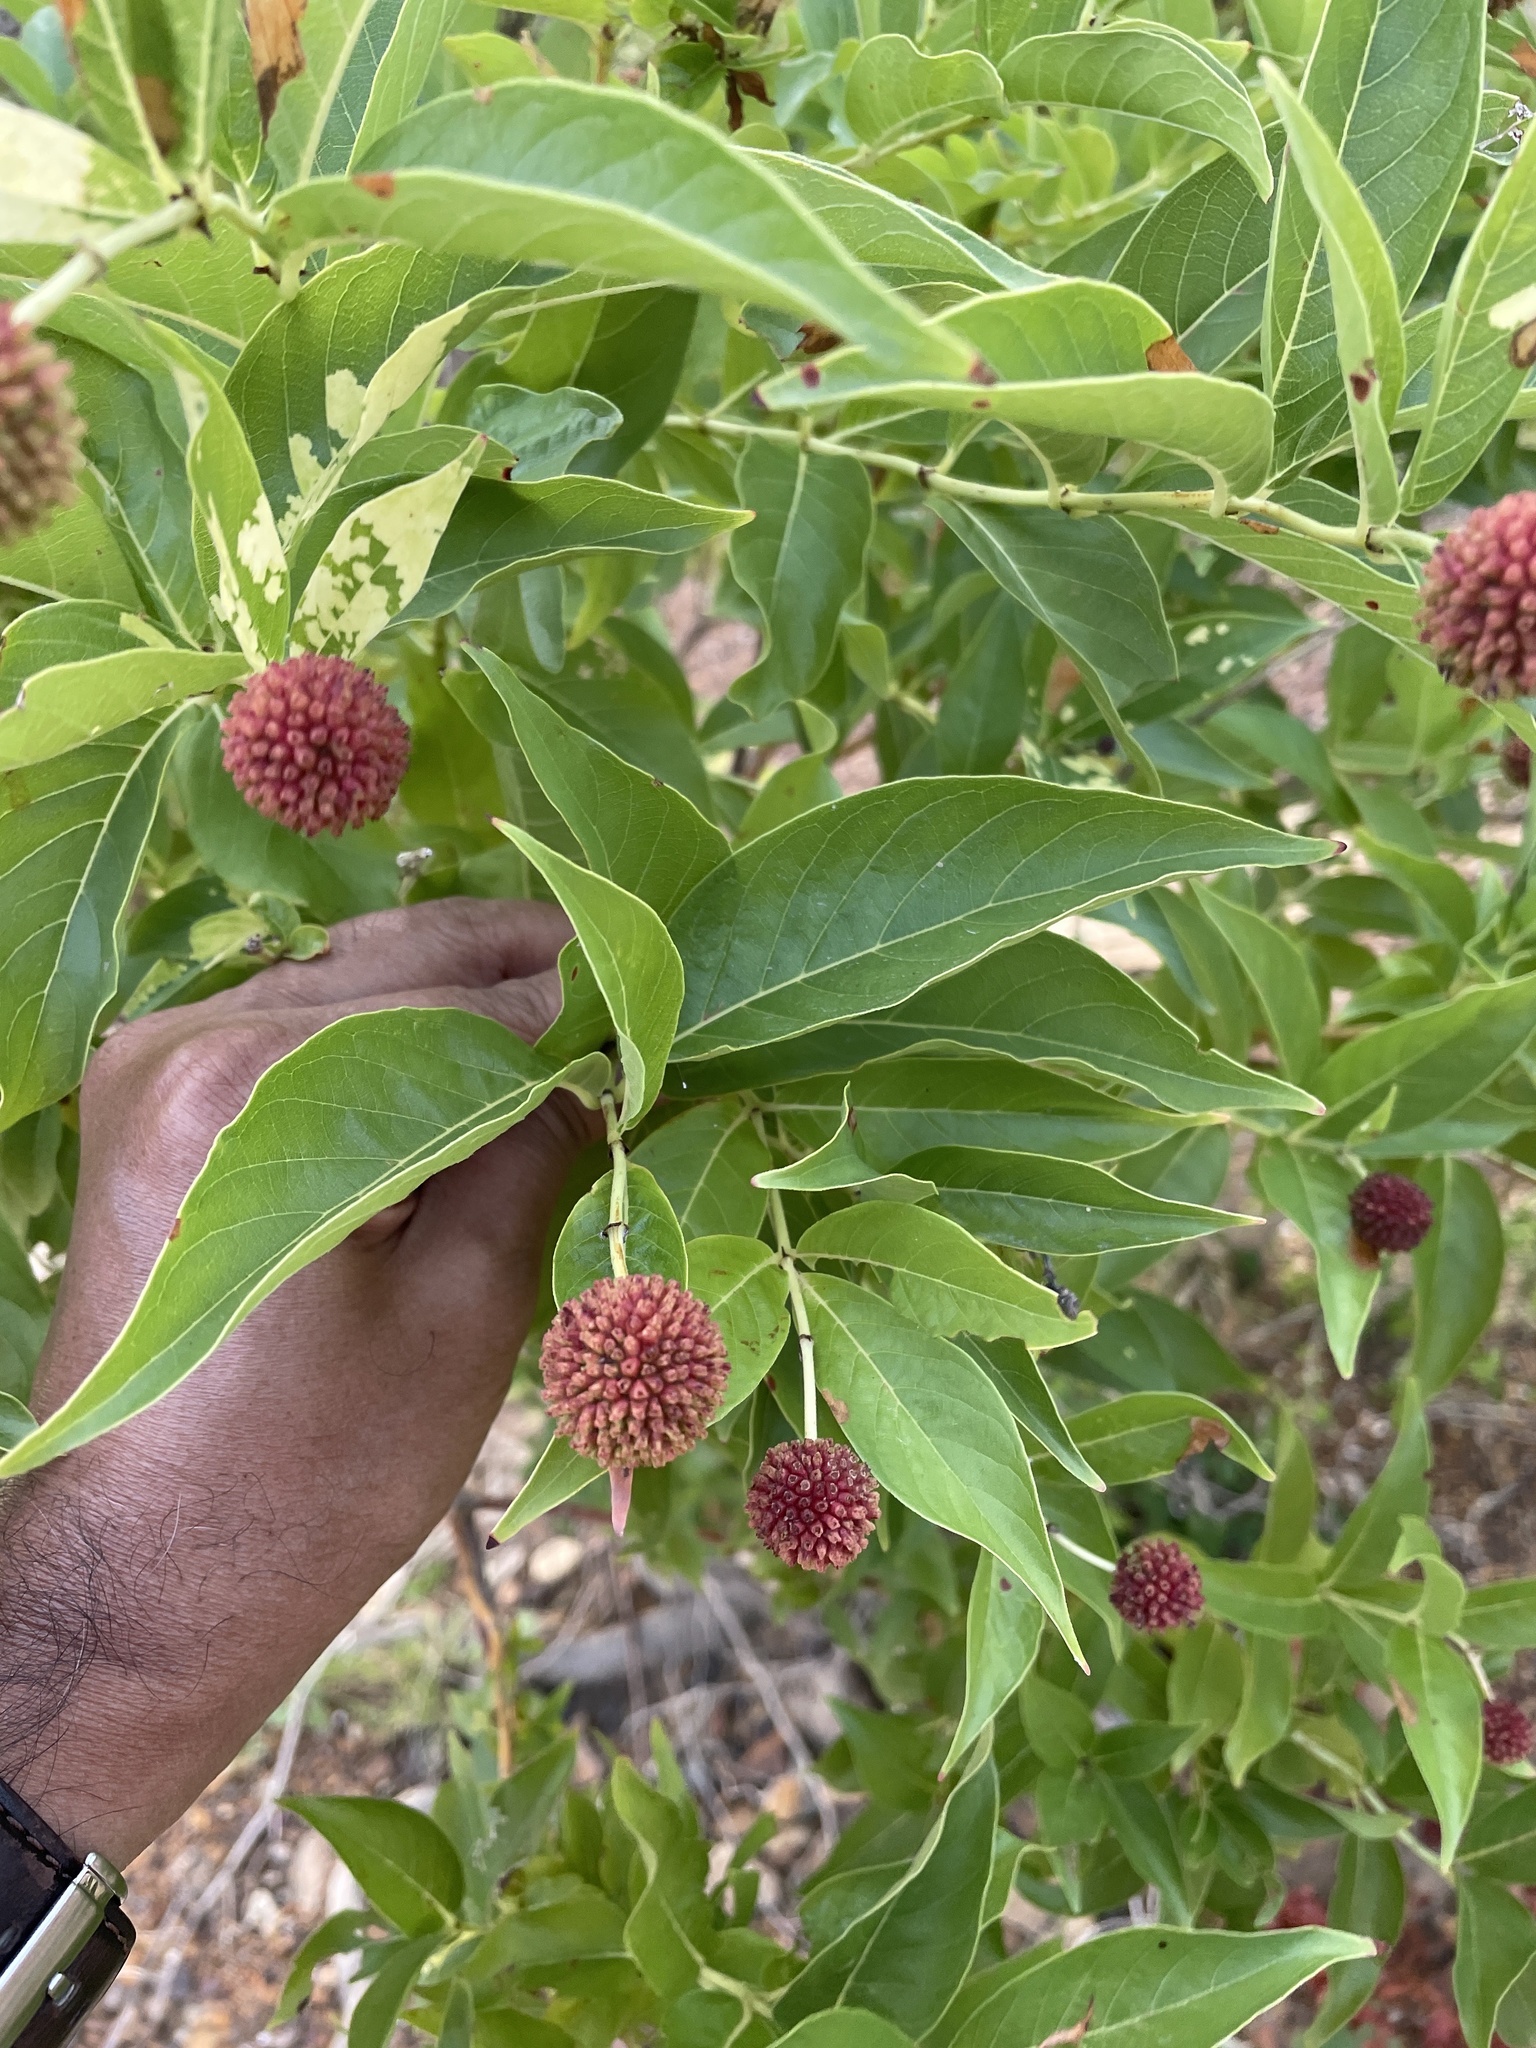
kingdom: Plantae
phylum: Tracheophyta
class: Magnoliopsida
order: Gentianales
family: Rubiaceae
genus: Cephalanthus
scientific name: Cephalanthus occidentalis
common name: Button-willow
